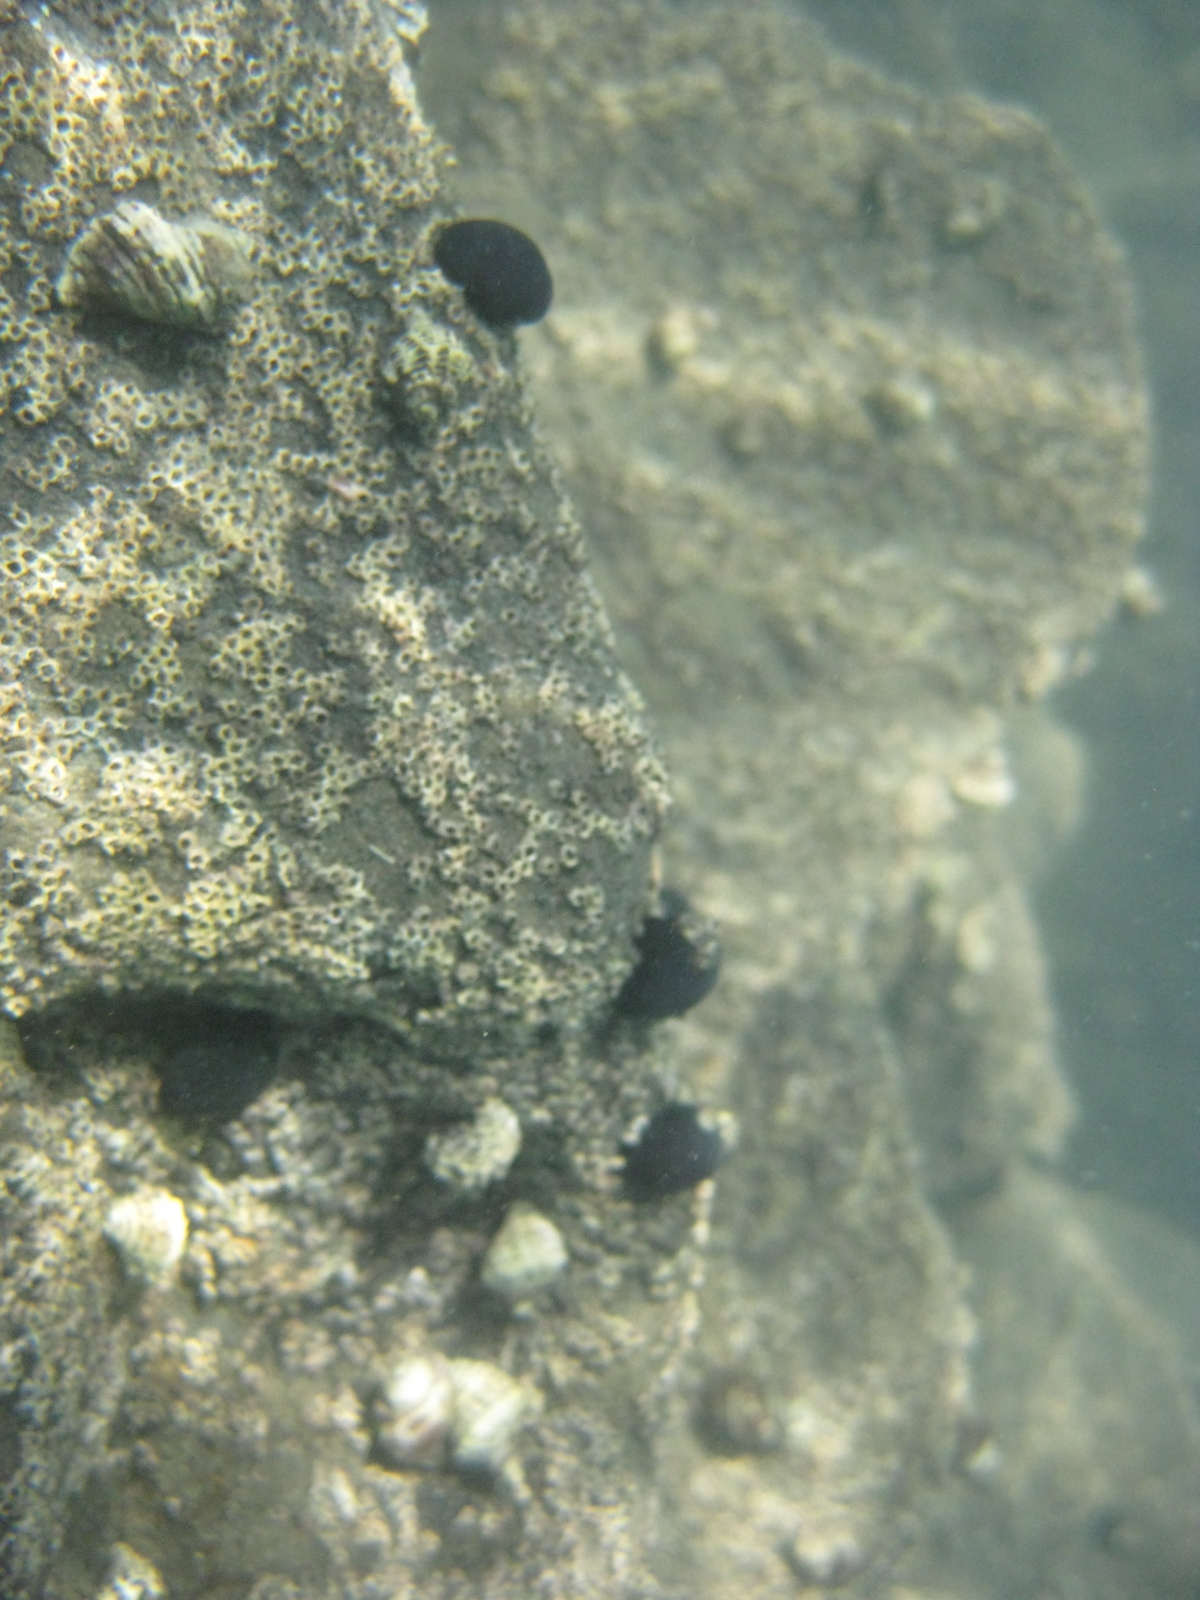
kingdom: Animalia
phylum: Mollusca
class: Gastropoda
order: Neogastropoda
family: Muricidae
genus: Haustrum
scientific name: Haustrum scobina
